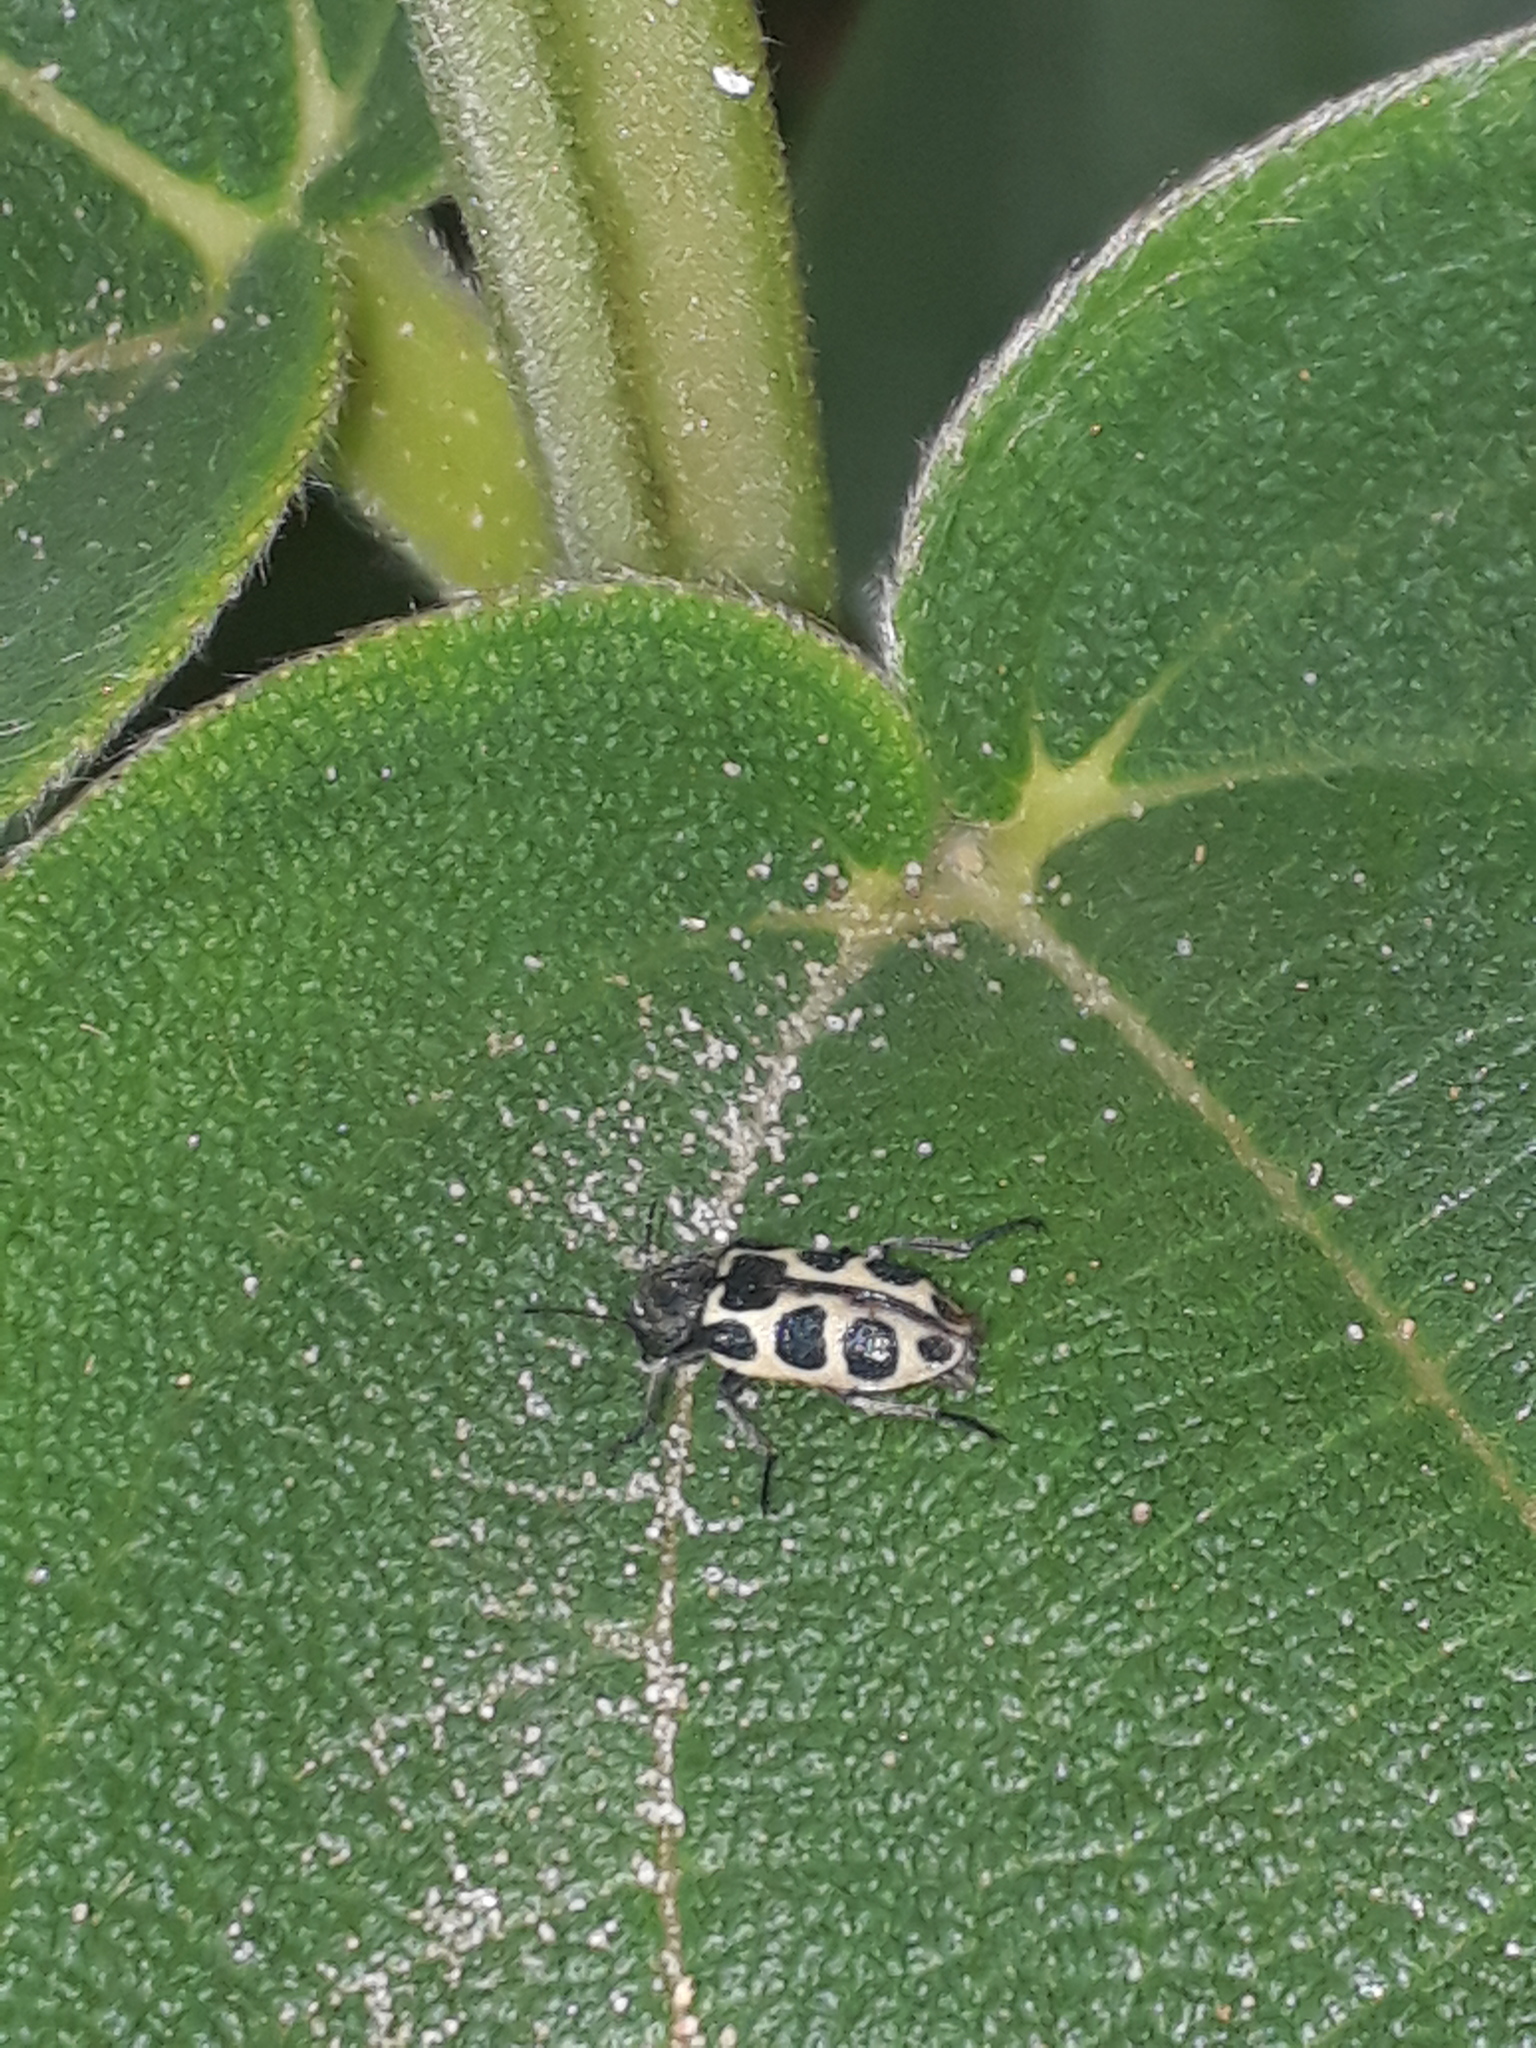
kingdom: Animalia
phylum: Arthropoda
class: Insecta
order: Coleoptera
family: Melyridae
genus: Astylus
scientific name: Astylus
